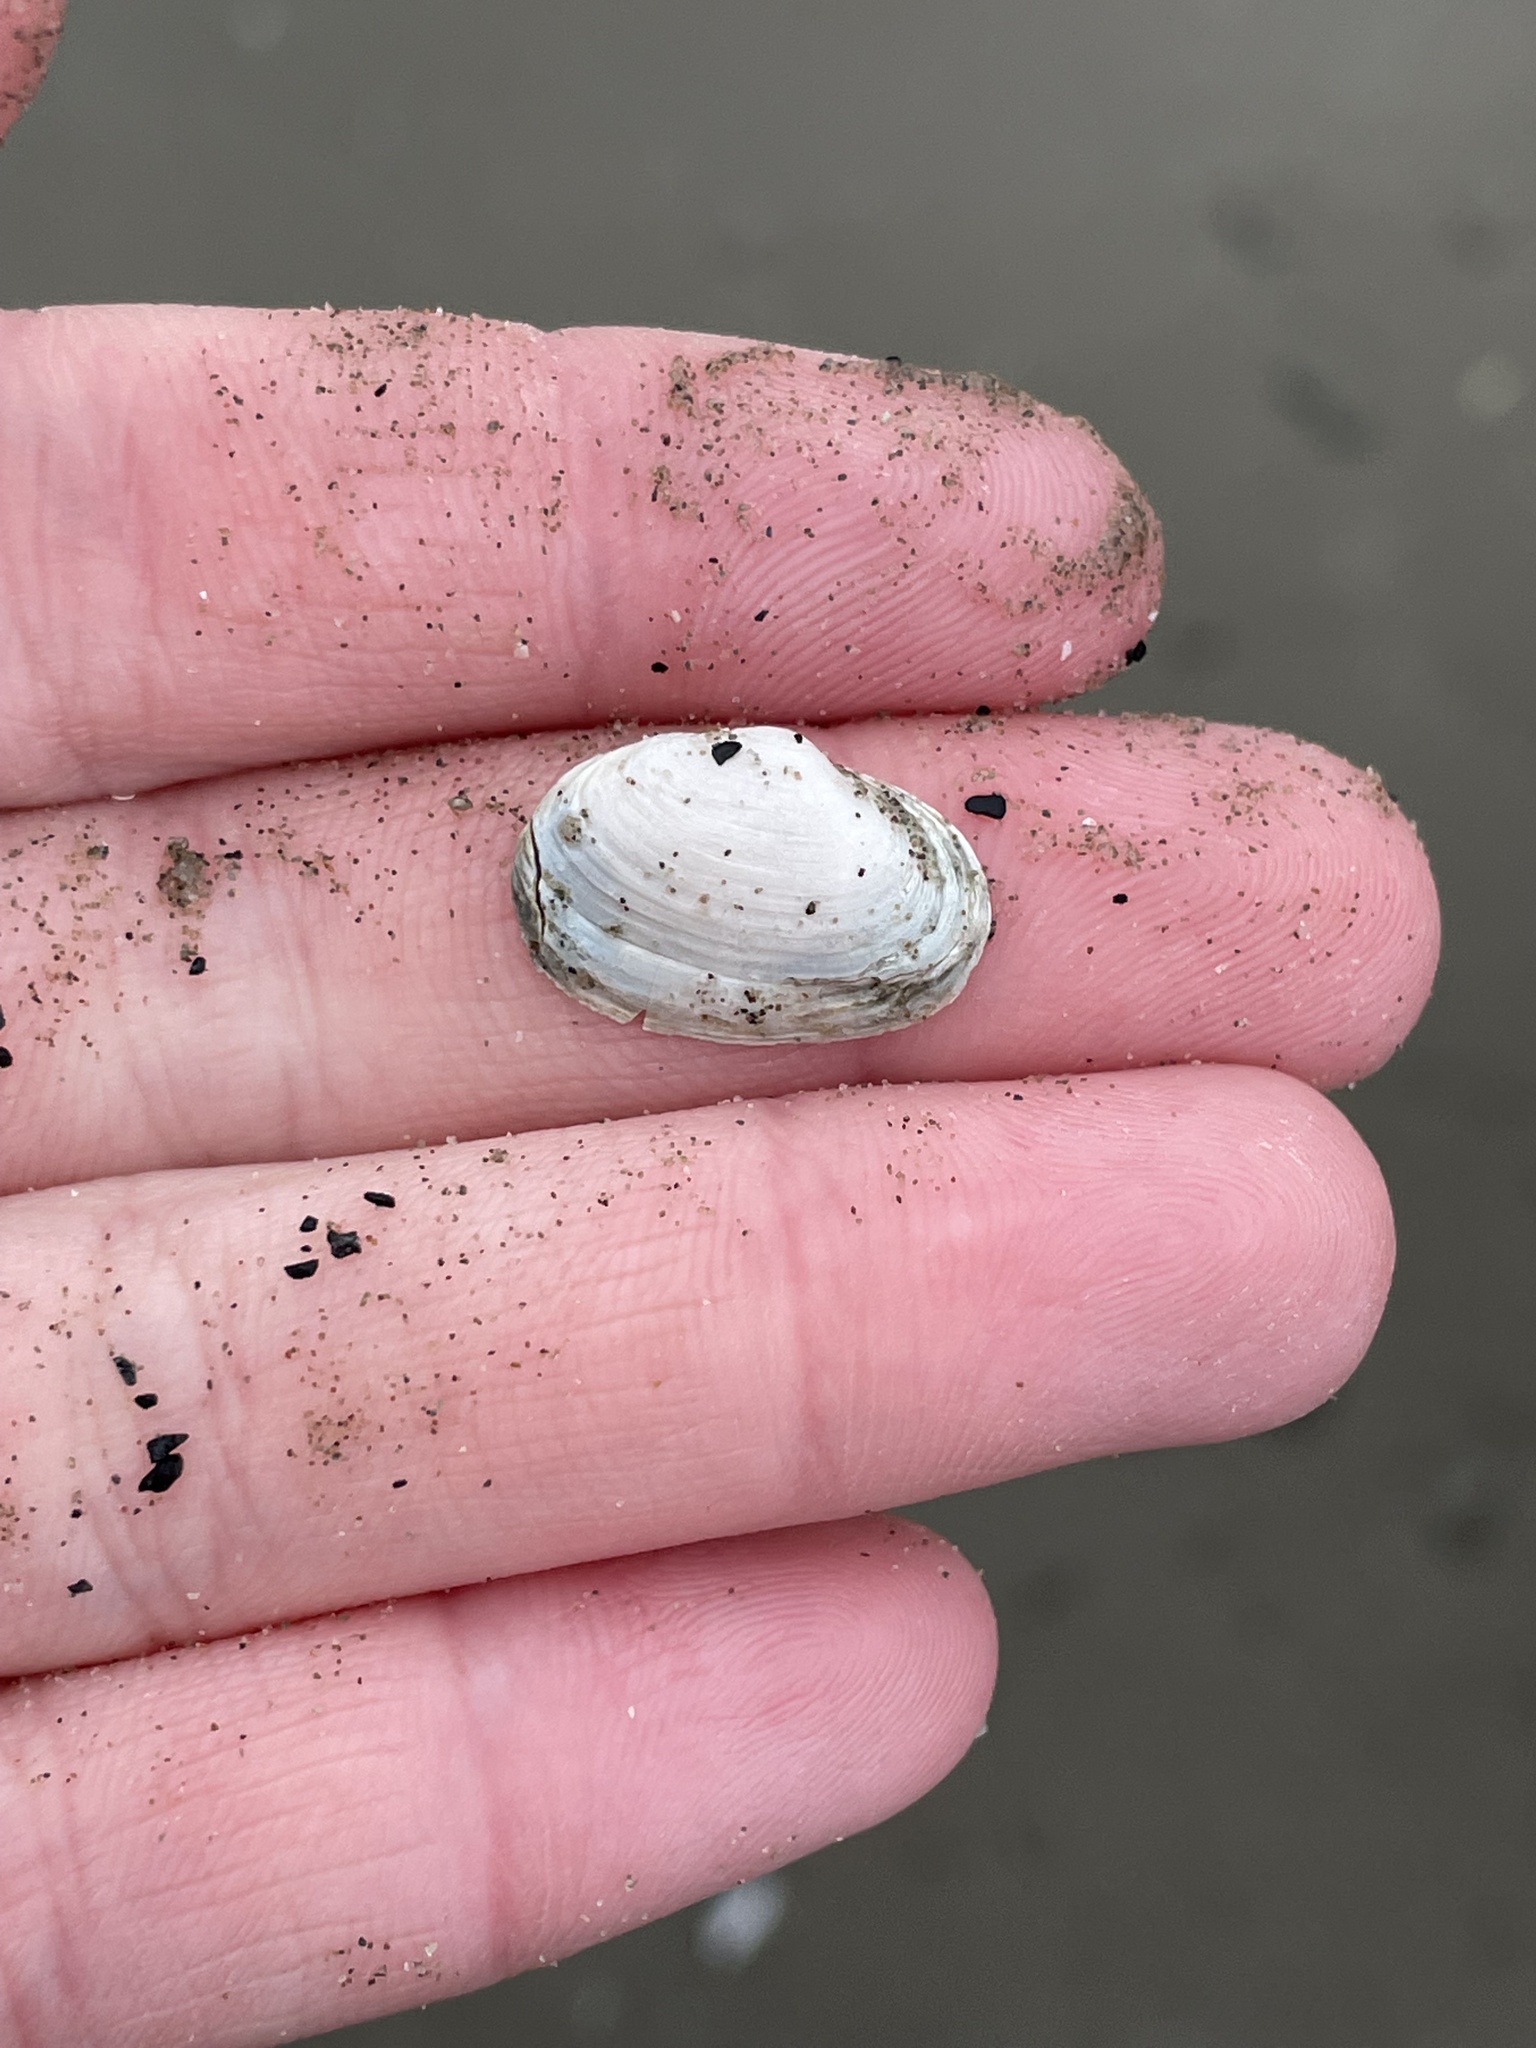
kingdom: Animalia
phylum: Mollusca
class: Bivalvia
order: Myida
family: Myidae
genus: Mya
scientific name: Mya arenaria
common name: Soft-shelled clam
